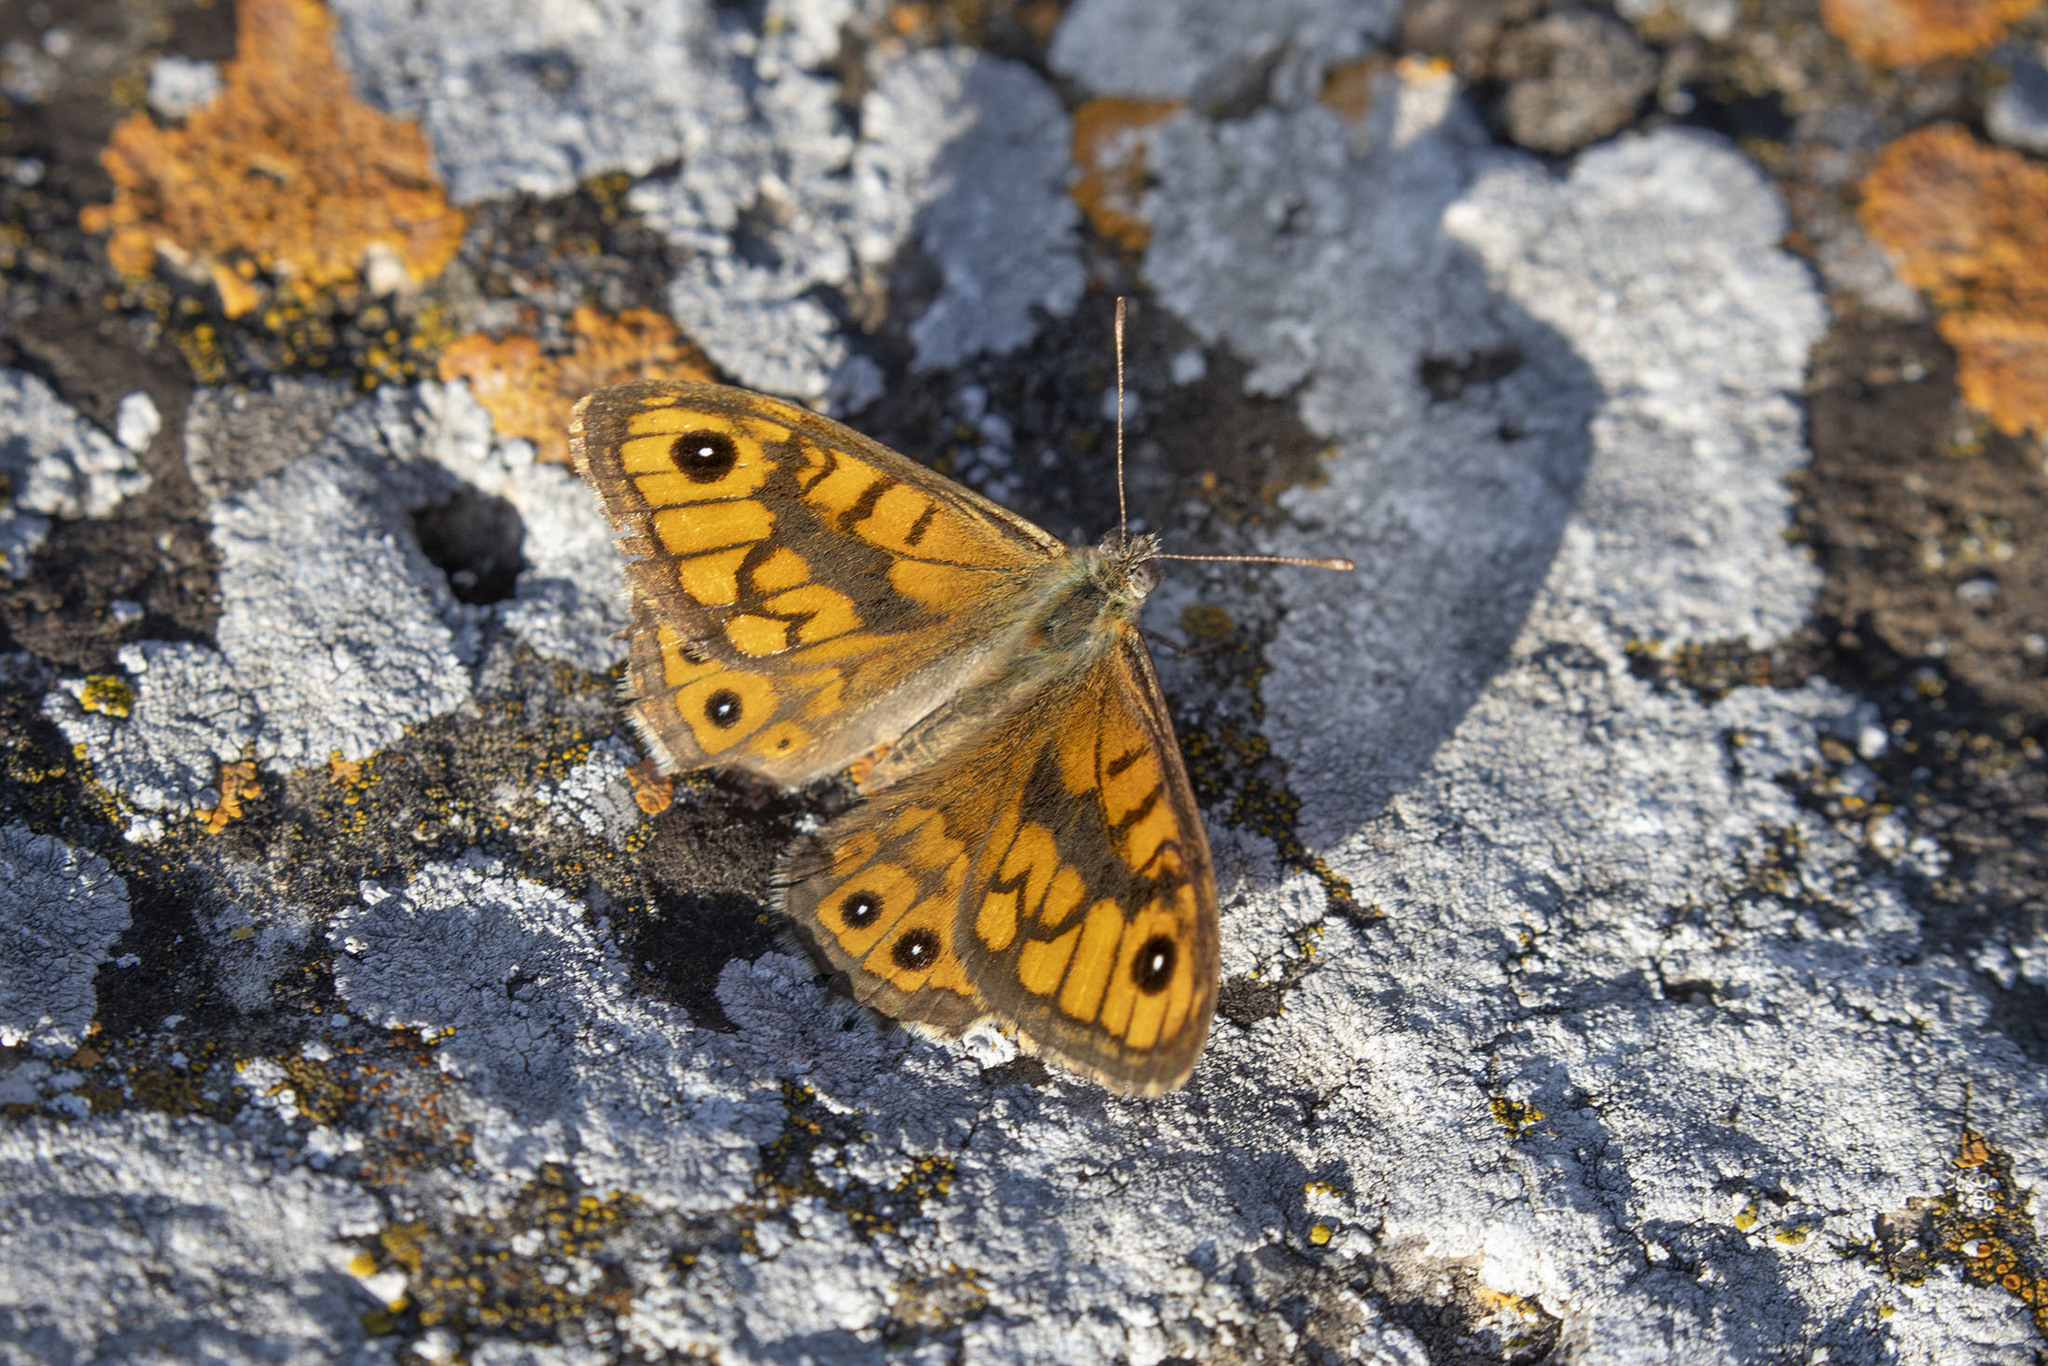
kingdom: Animalia
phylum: Arthropoda
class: Insecta
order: Lepidoptera
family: Nymphalidae
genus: Pararge
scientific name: Pararge Lasiommata megera
